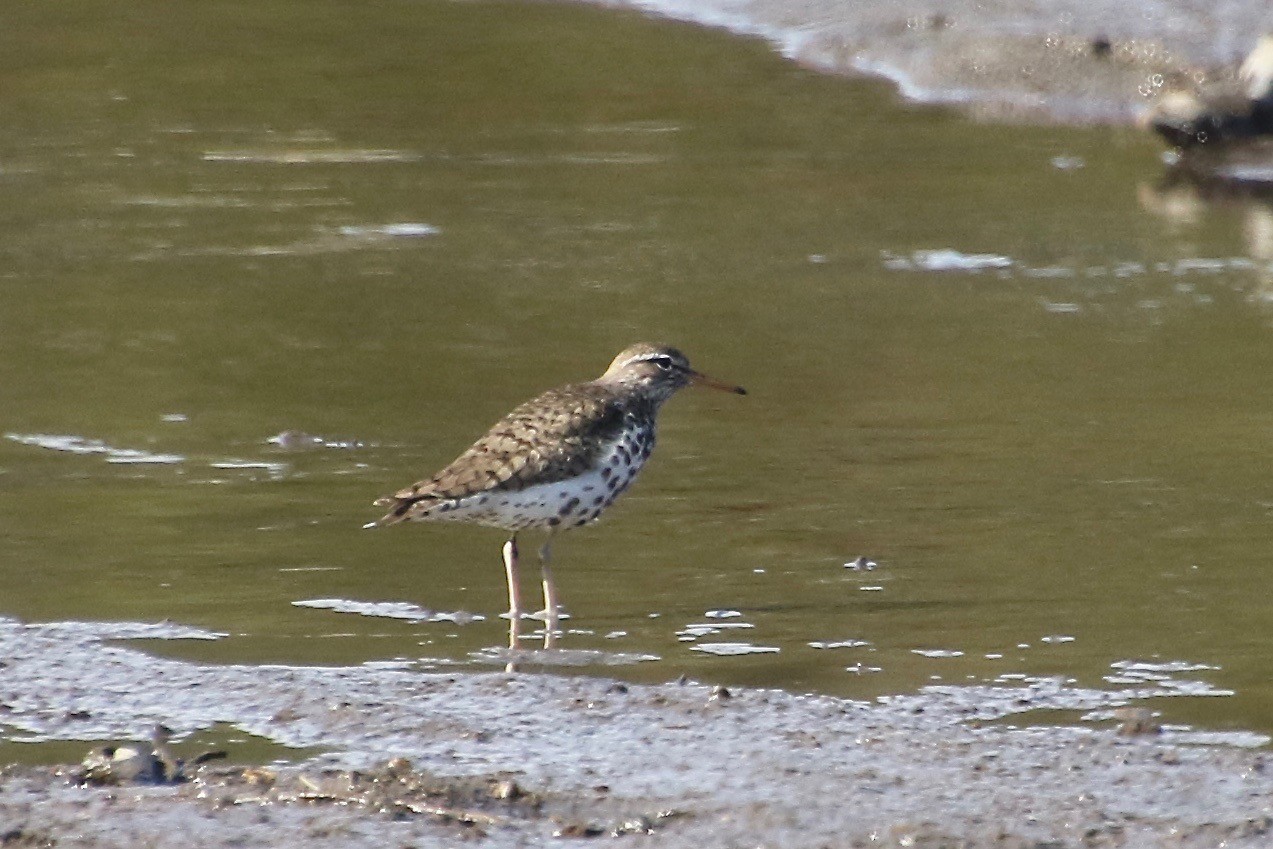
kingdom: Animalia
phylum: Chordata
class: Aves
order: Charadriiformes
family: Scolopacidae
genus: Actitis
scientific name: Actitis macularius
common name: Spotted sandpiper
